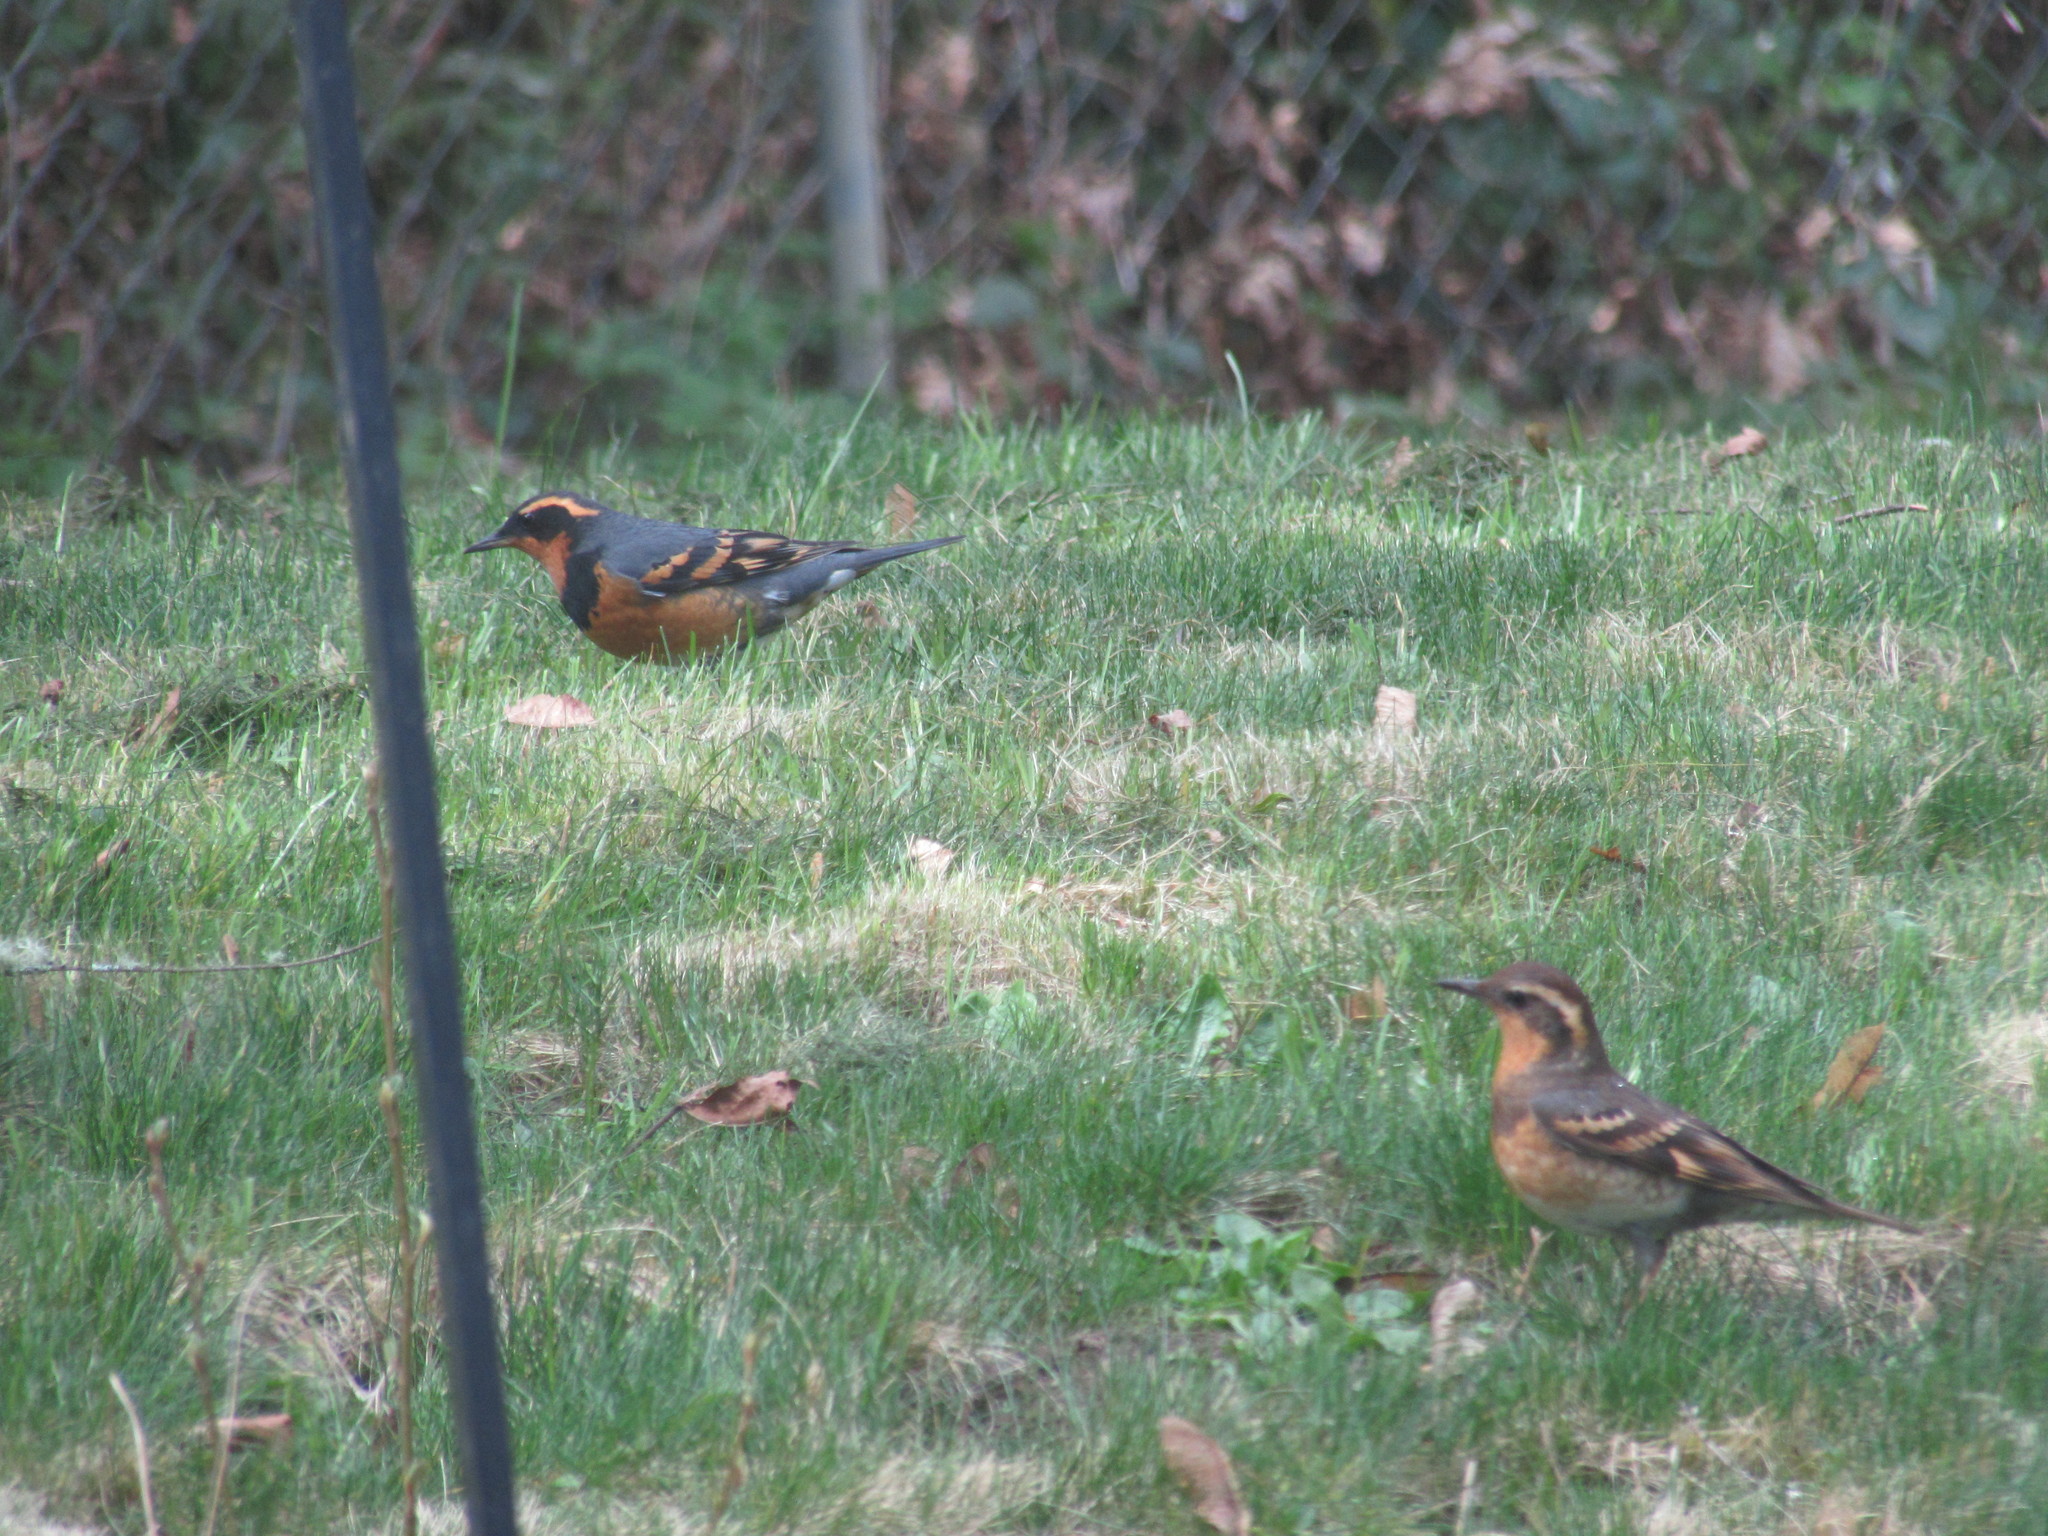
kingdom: Animalia
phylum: Chordata
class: Aves
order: Passeriformes
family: Turdidae
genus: Ixoreus
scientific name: Ixoreus naevius
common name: Varied thrush
